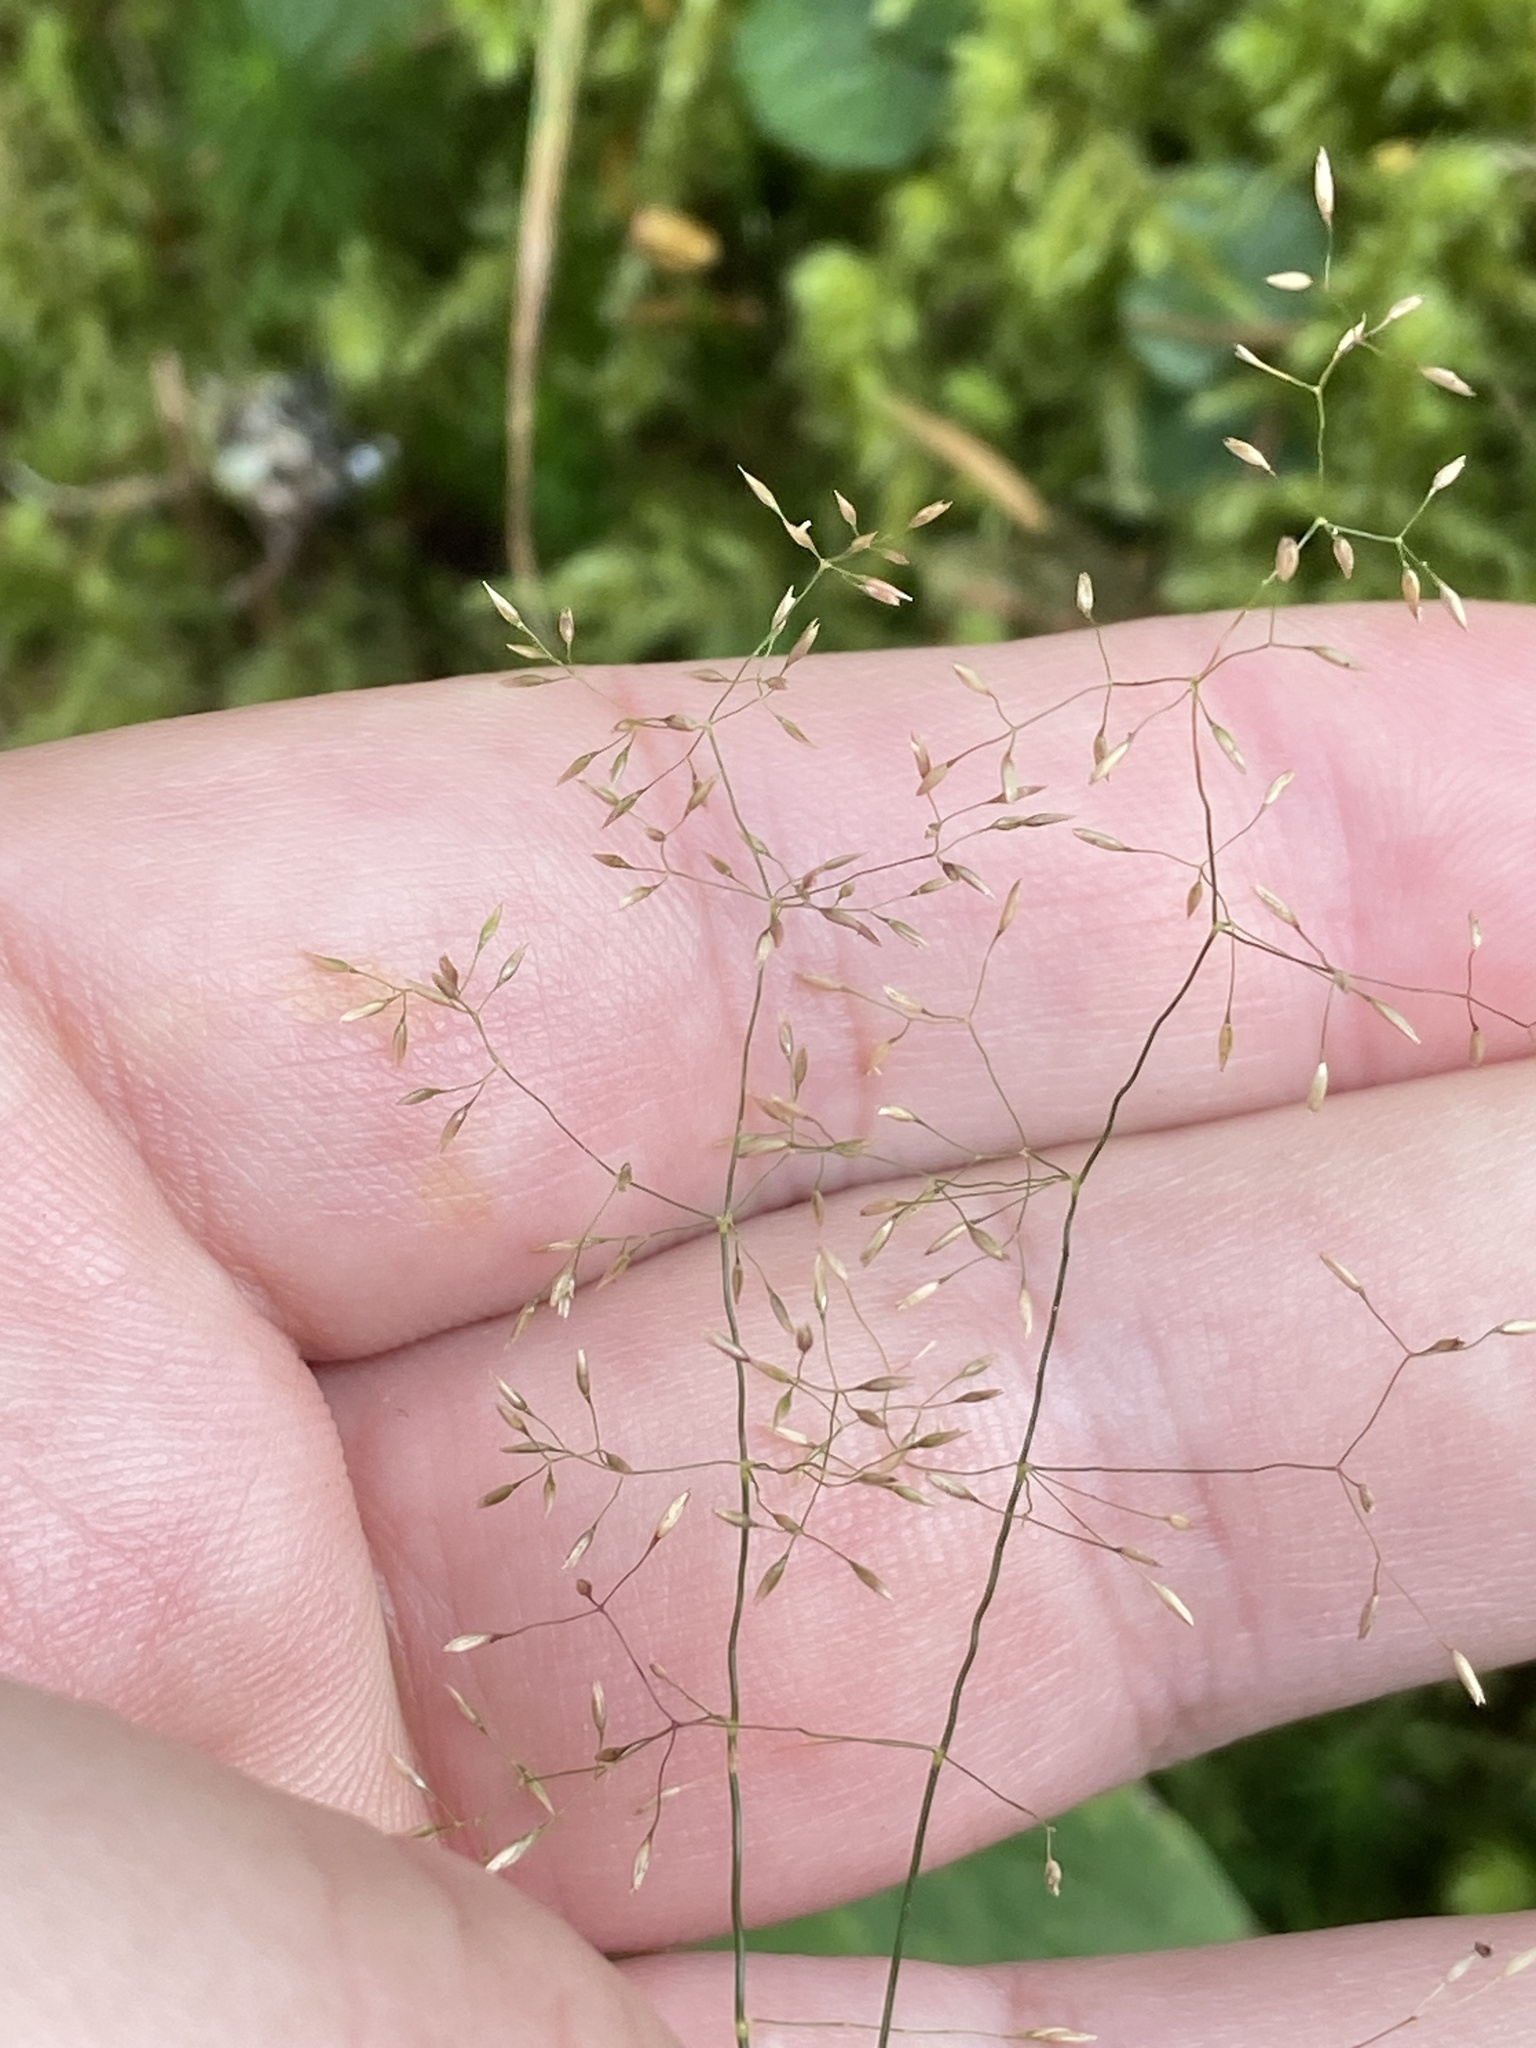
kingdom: Plantae
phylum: Tracheophyta
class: Liliopsida
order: Poales
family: Poaceae
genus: Agrostis
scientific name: Agrostis capillaris
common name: Colonial bentgrass
